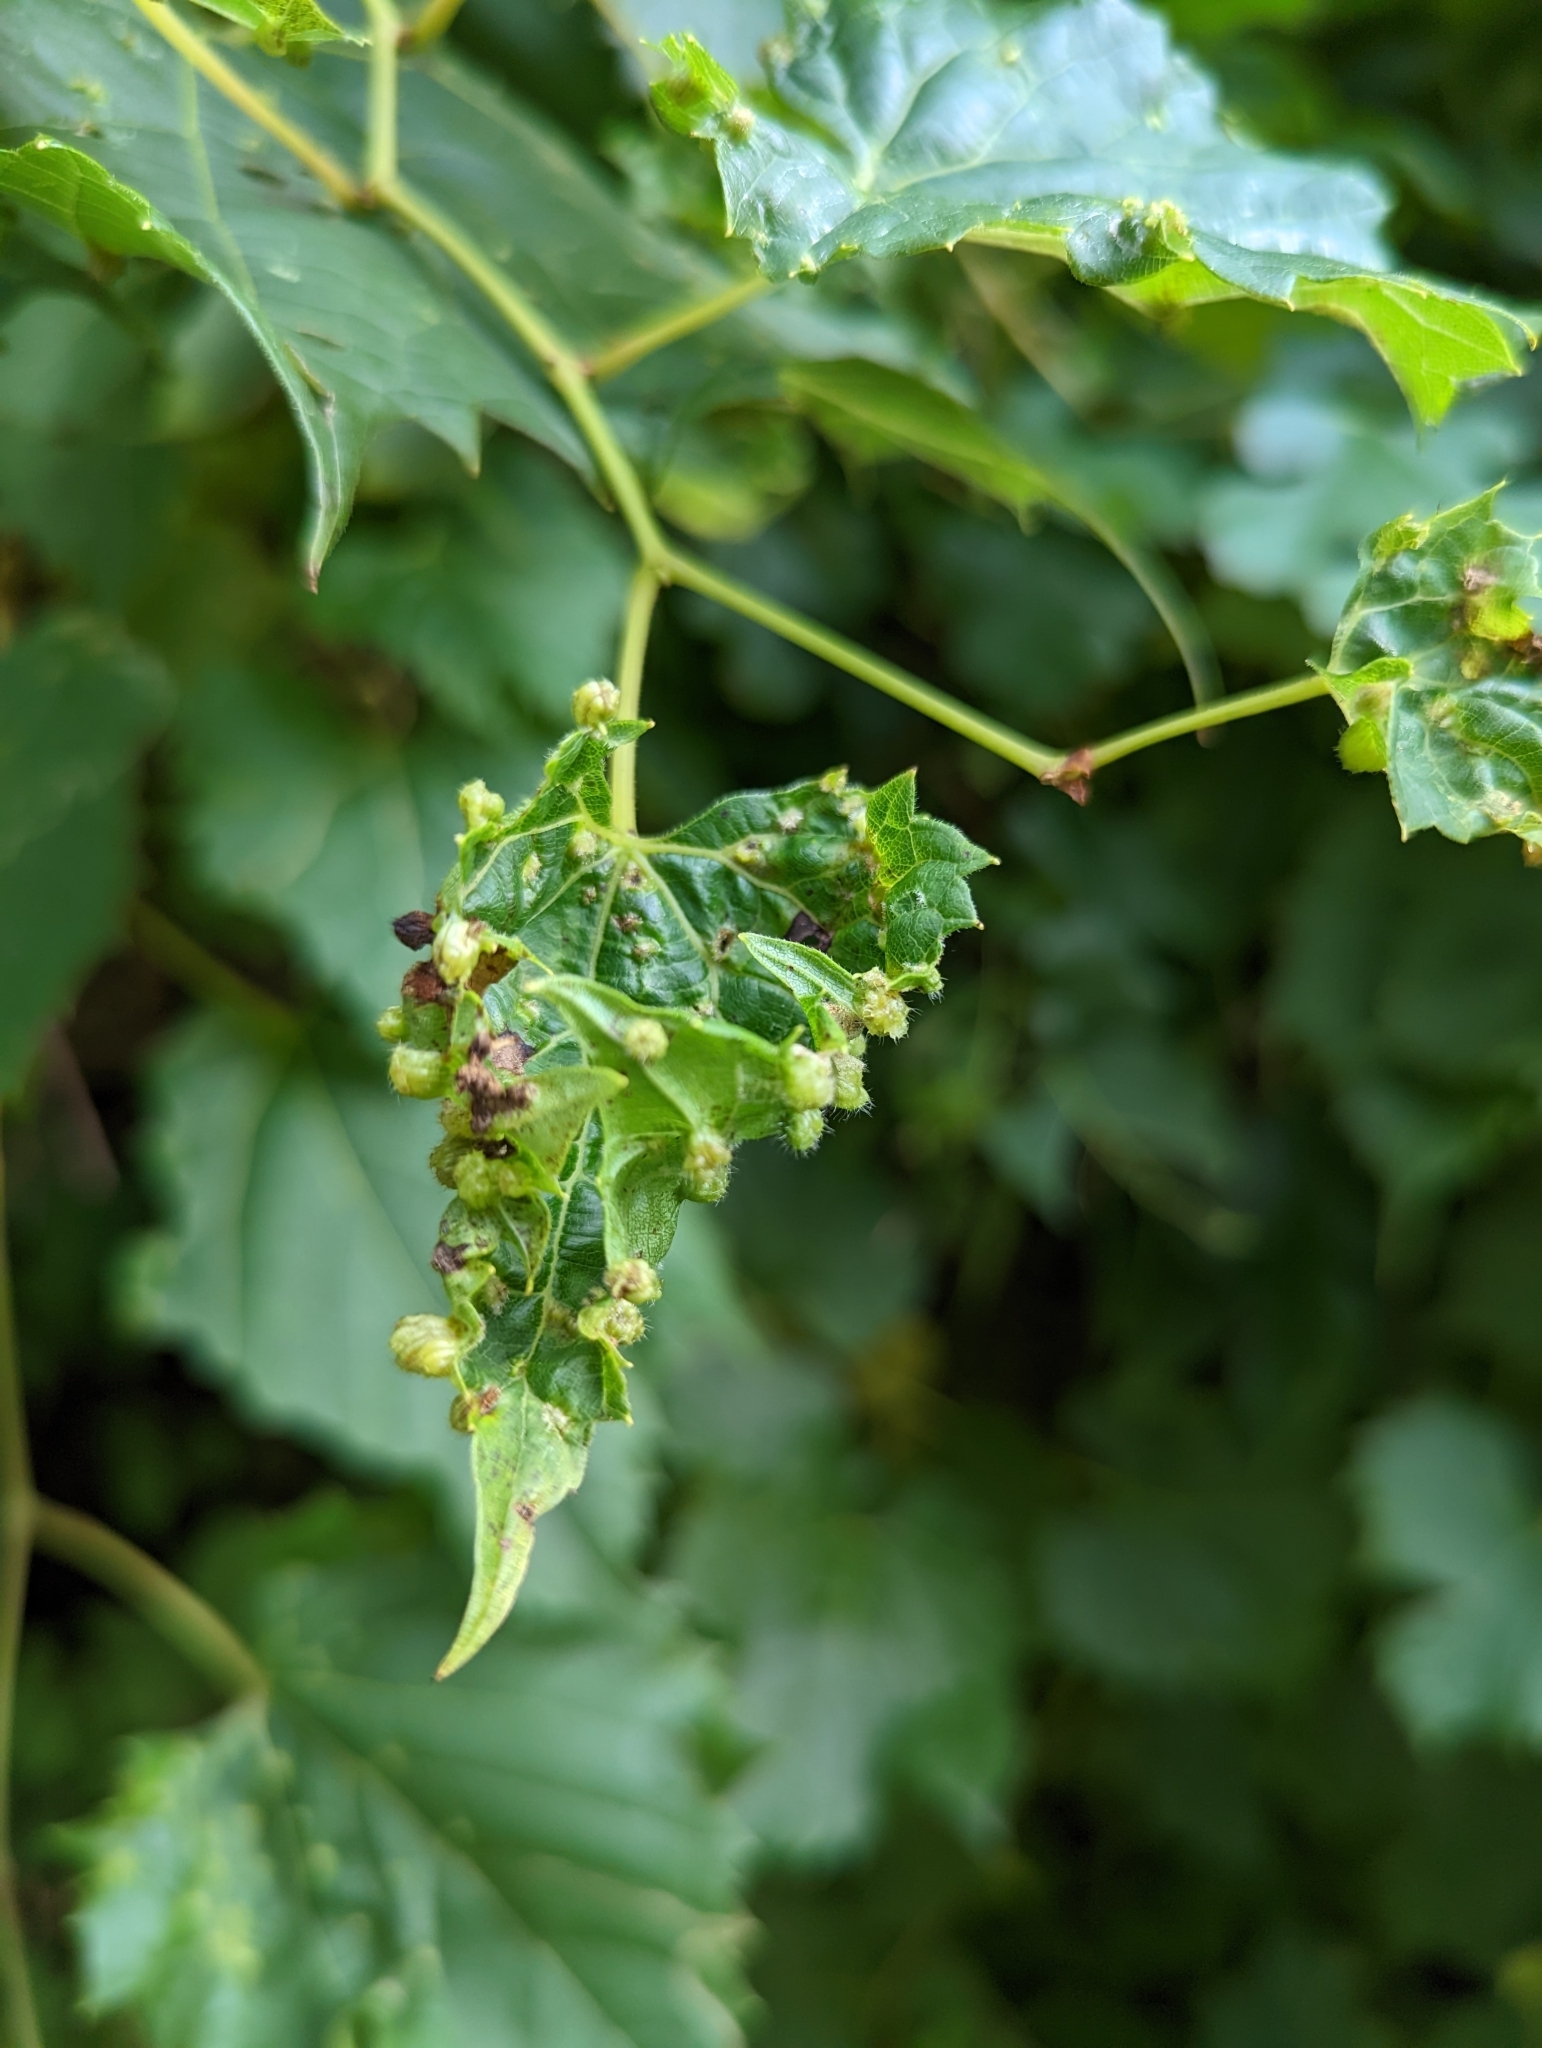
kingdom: Animalia
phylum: Arthropoda
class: Insecta
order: Hemiptera
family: Phylloxeridae
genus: Daktulosphaira
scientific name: Daktulosphaira vitifoliae
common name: Grape phylloxera
